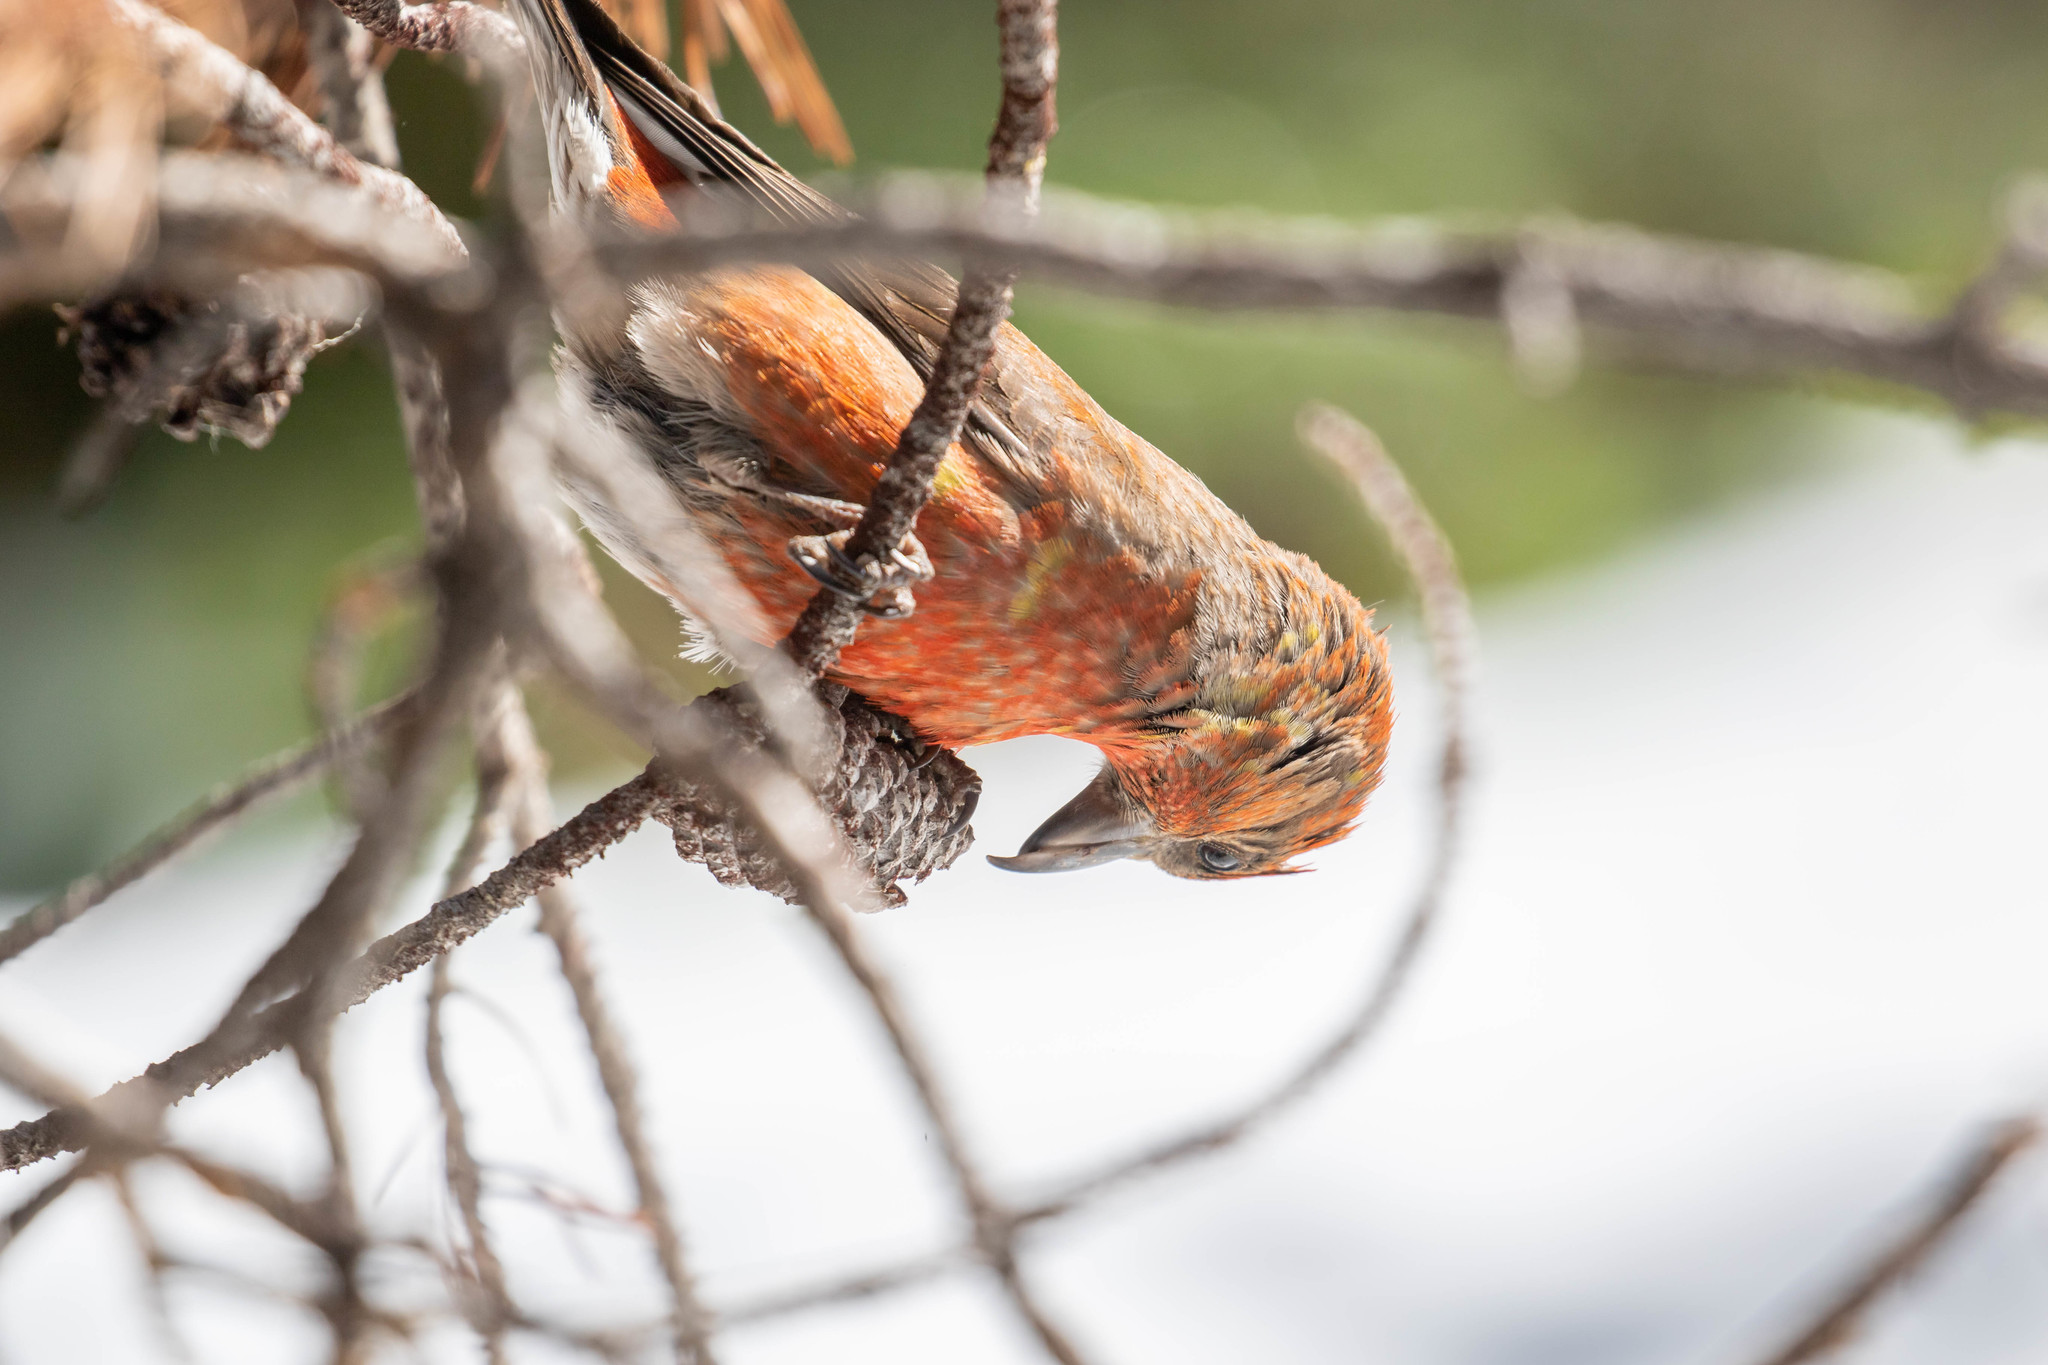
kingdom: Animalia
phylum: Chordata
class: Aves
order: Passeriformes
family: Fringillidae
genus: Loxia
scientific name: Loxia sinesciuris
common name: Cassia crossbill
